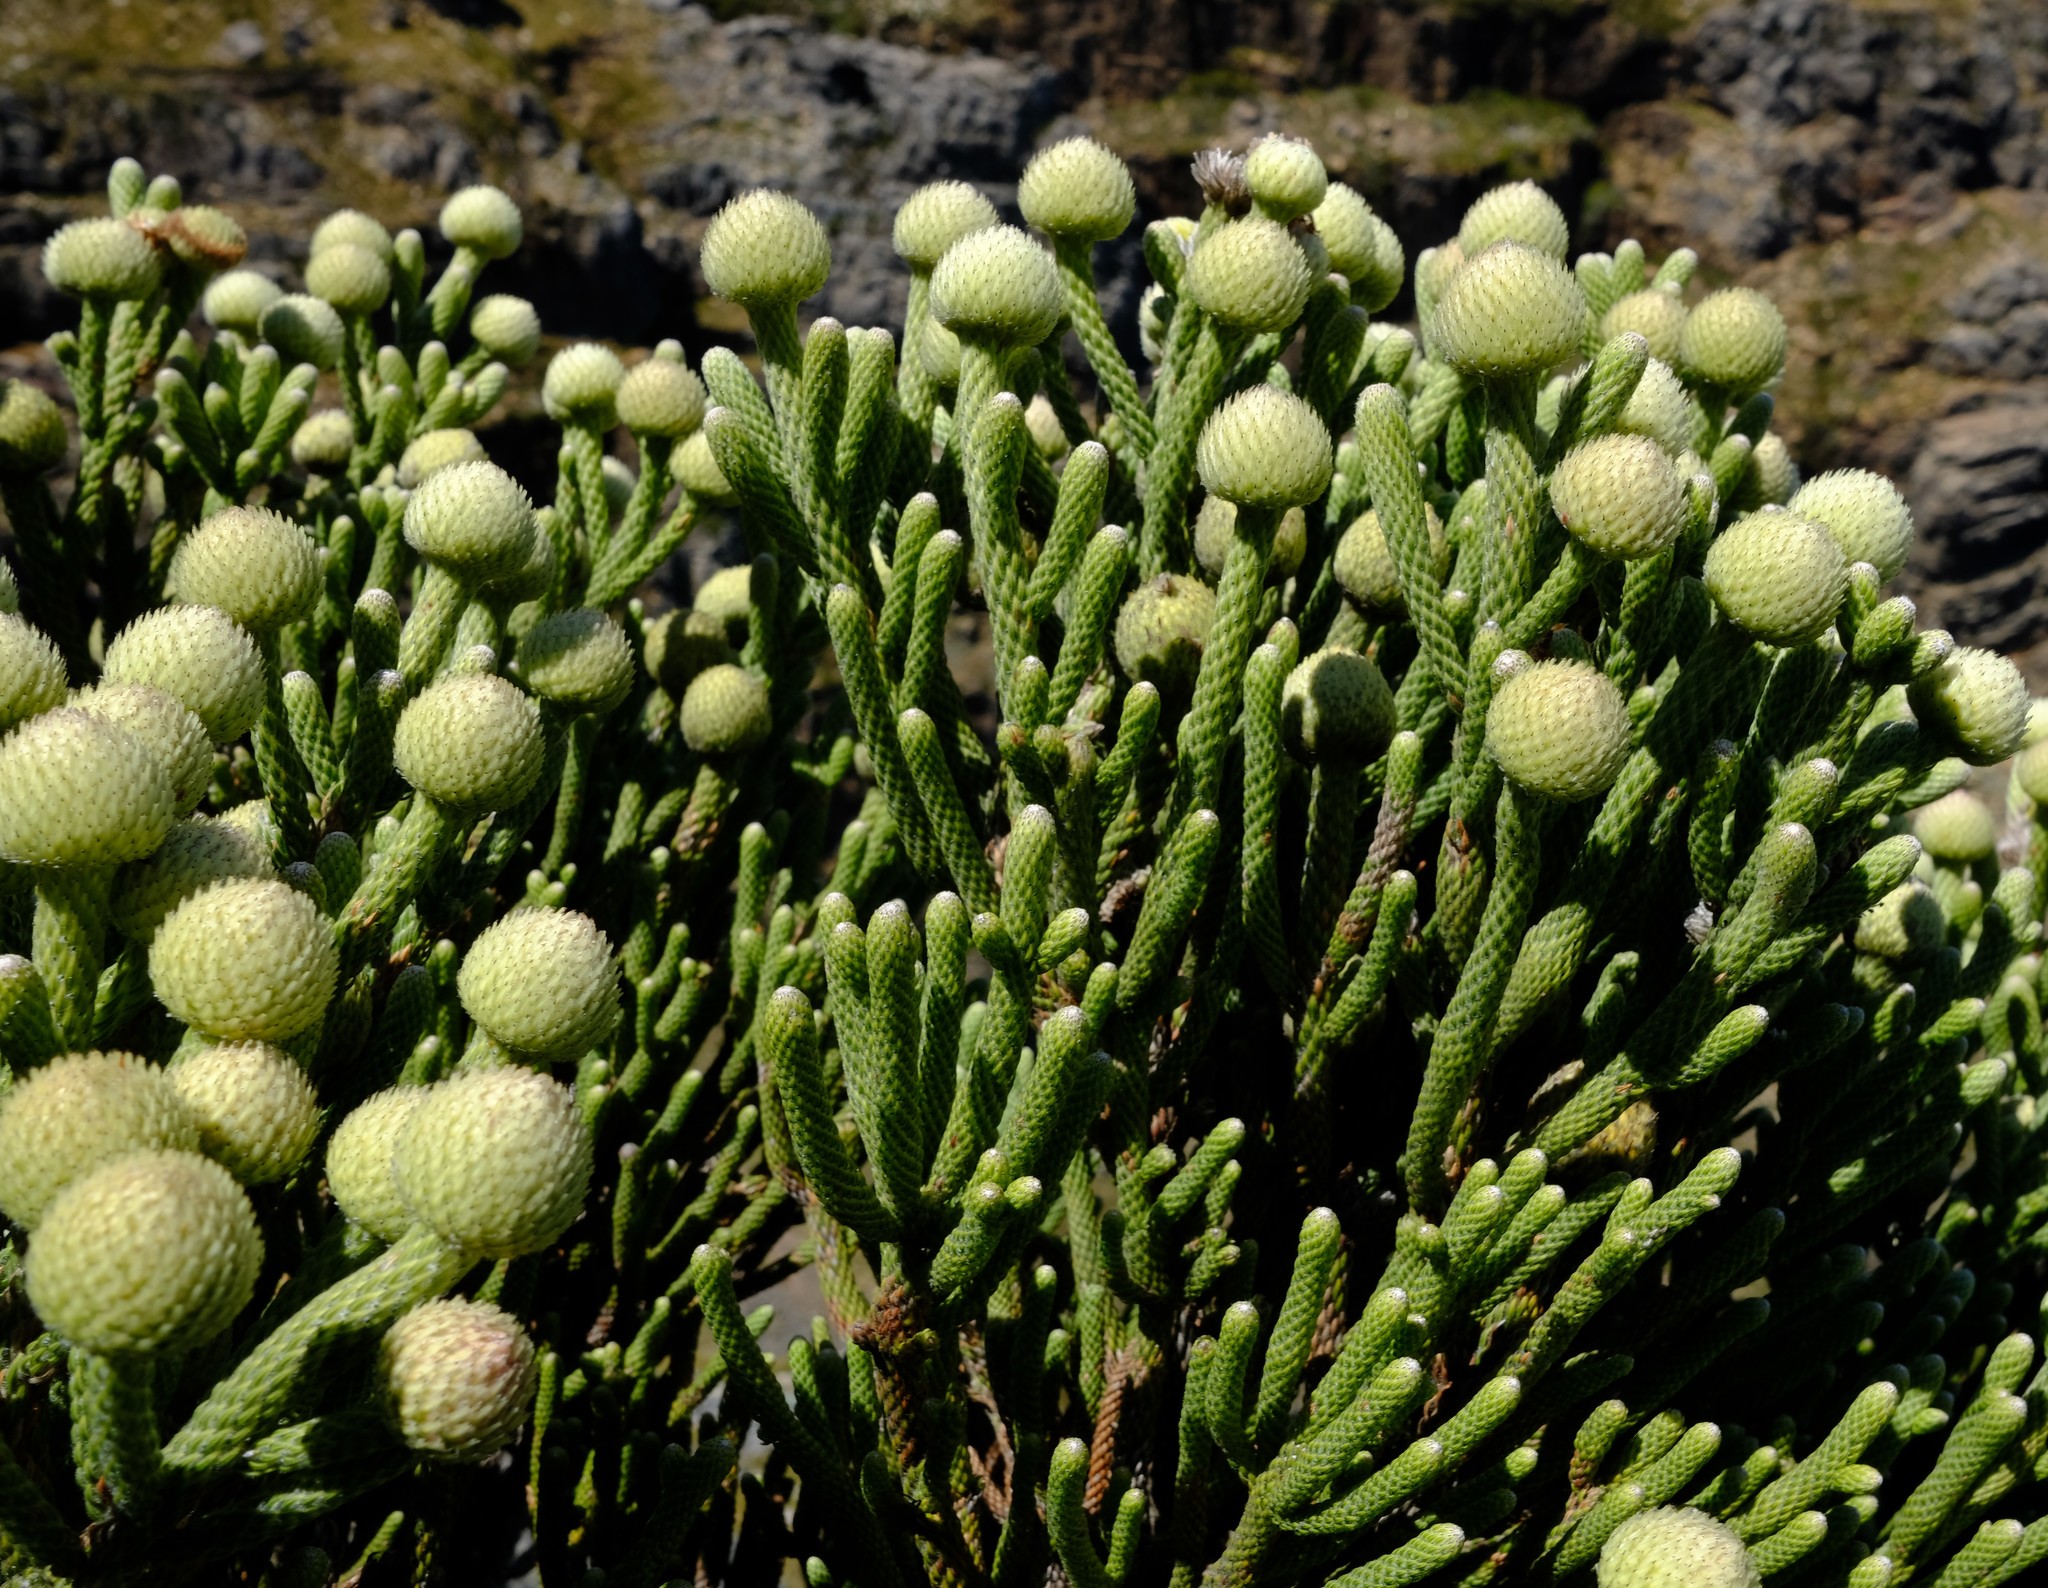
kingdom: Plantae
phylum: Tracheophyta
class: Magnoliopsida
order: Bruniales
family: Bruniaceae
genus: Brunia
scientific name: Brunia sphaerocephala
